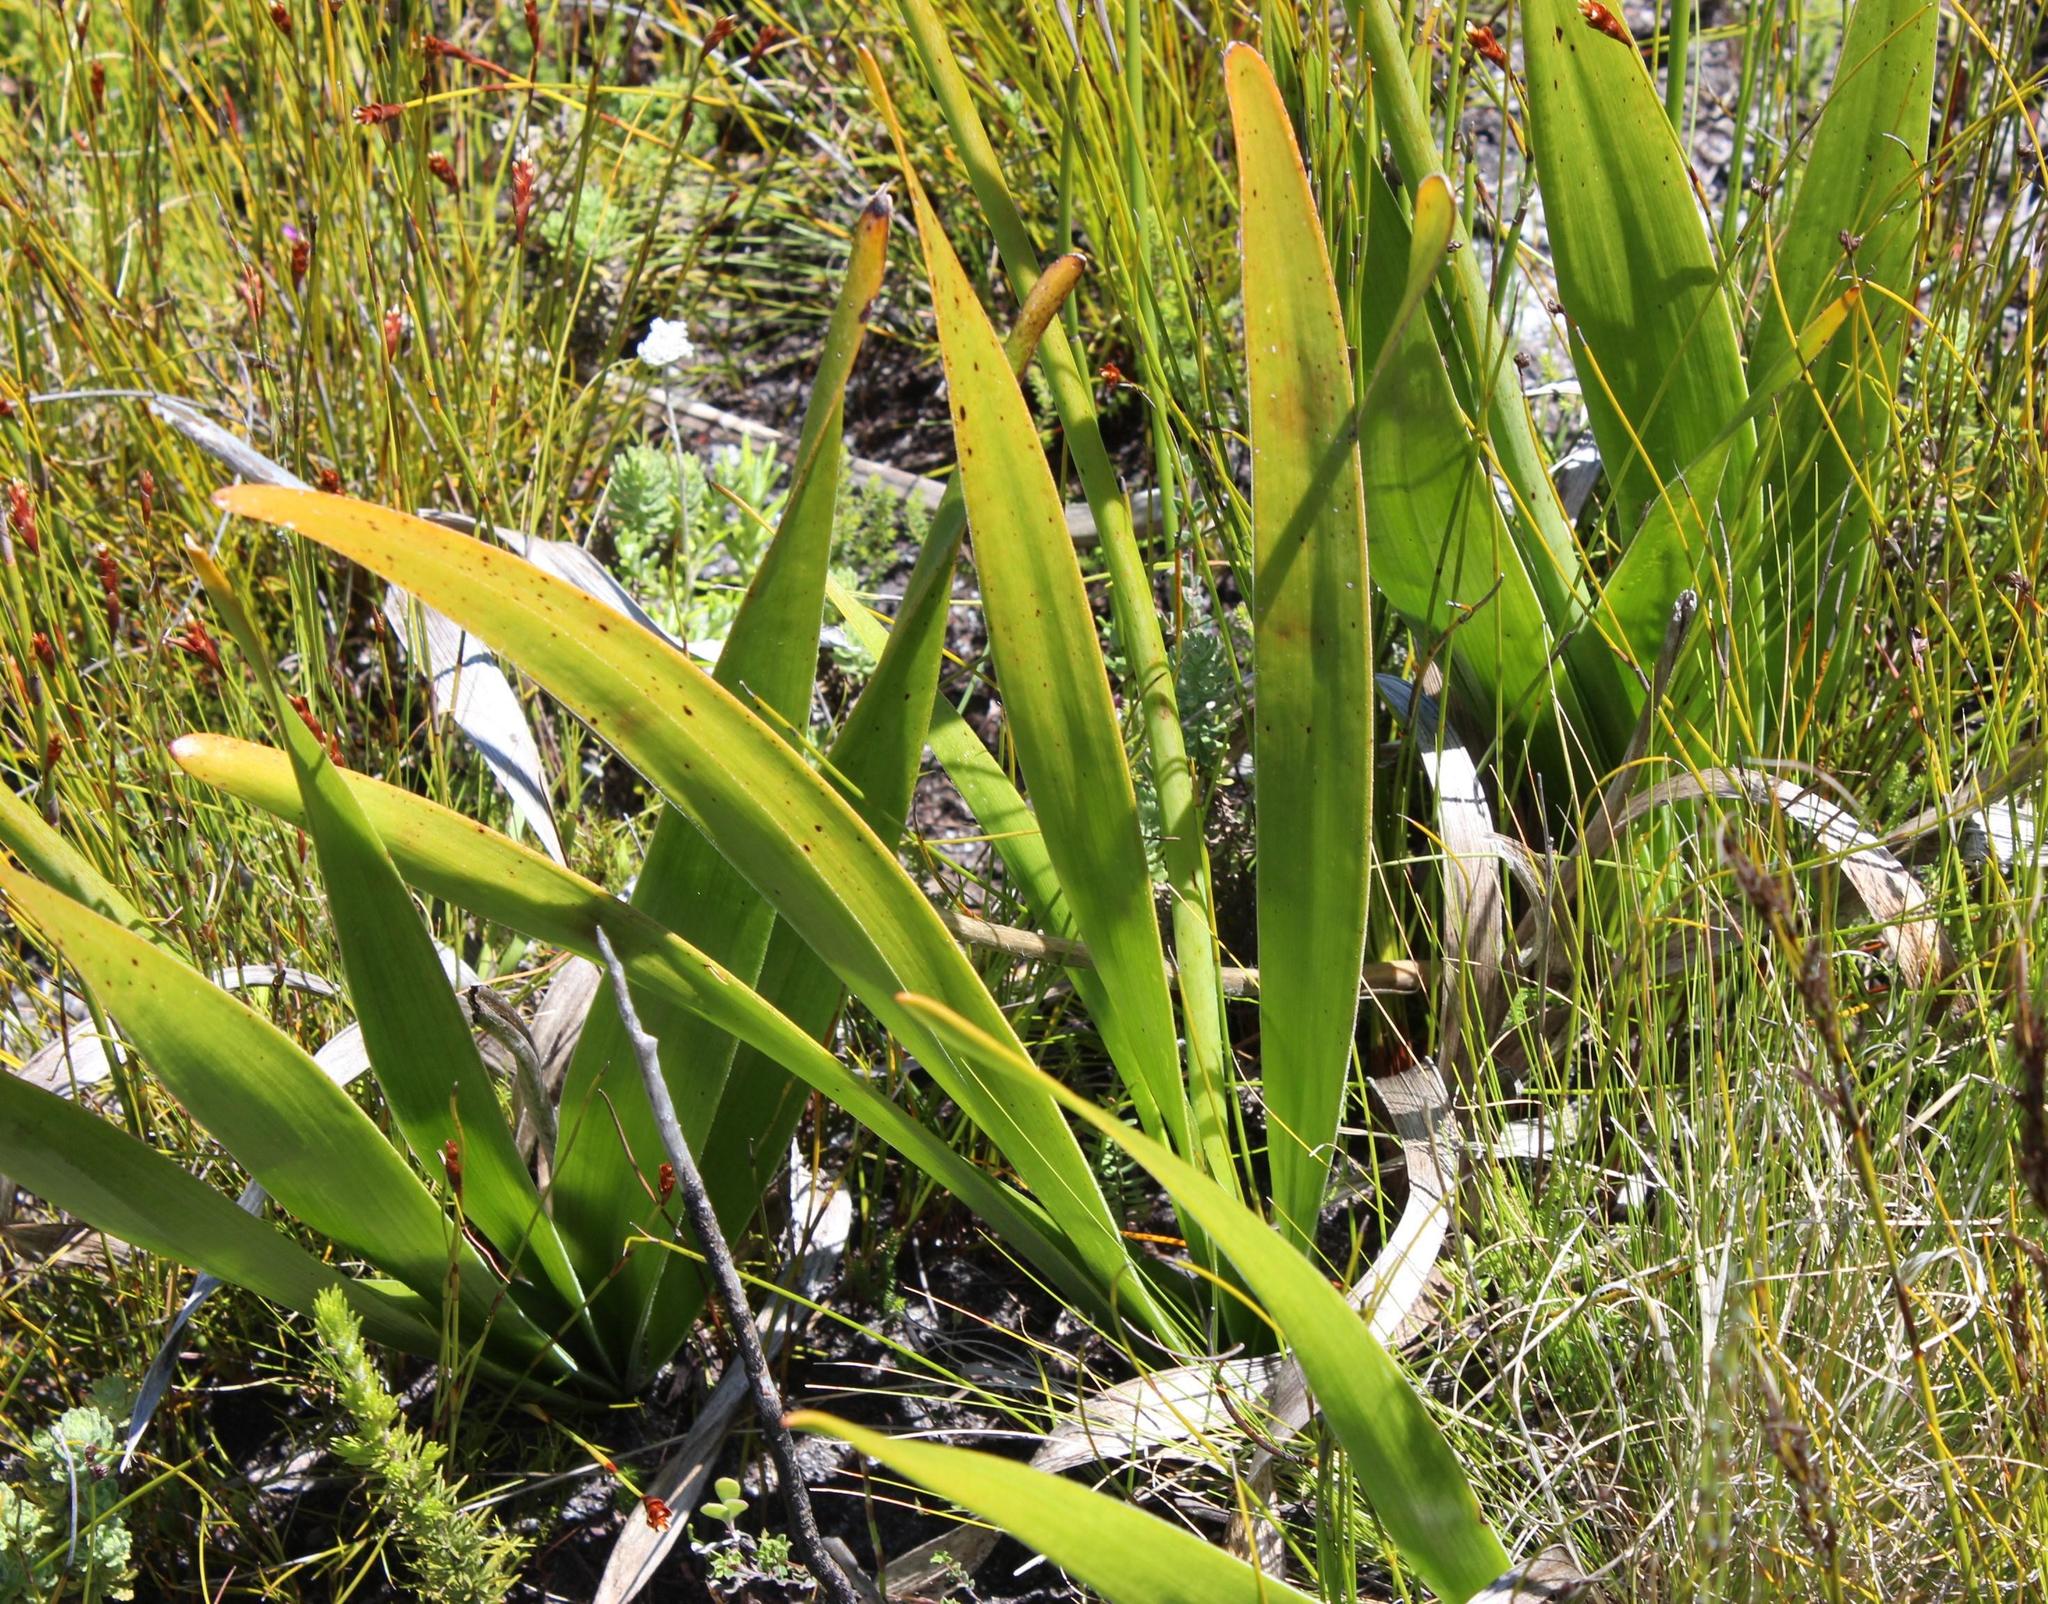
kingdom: Plantae
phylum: Tracheophyta
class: Liliopsida
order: Asparagales
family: Asphodelaceae
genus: Trachyandra
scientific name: Trachyandra tabularis
